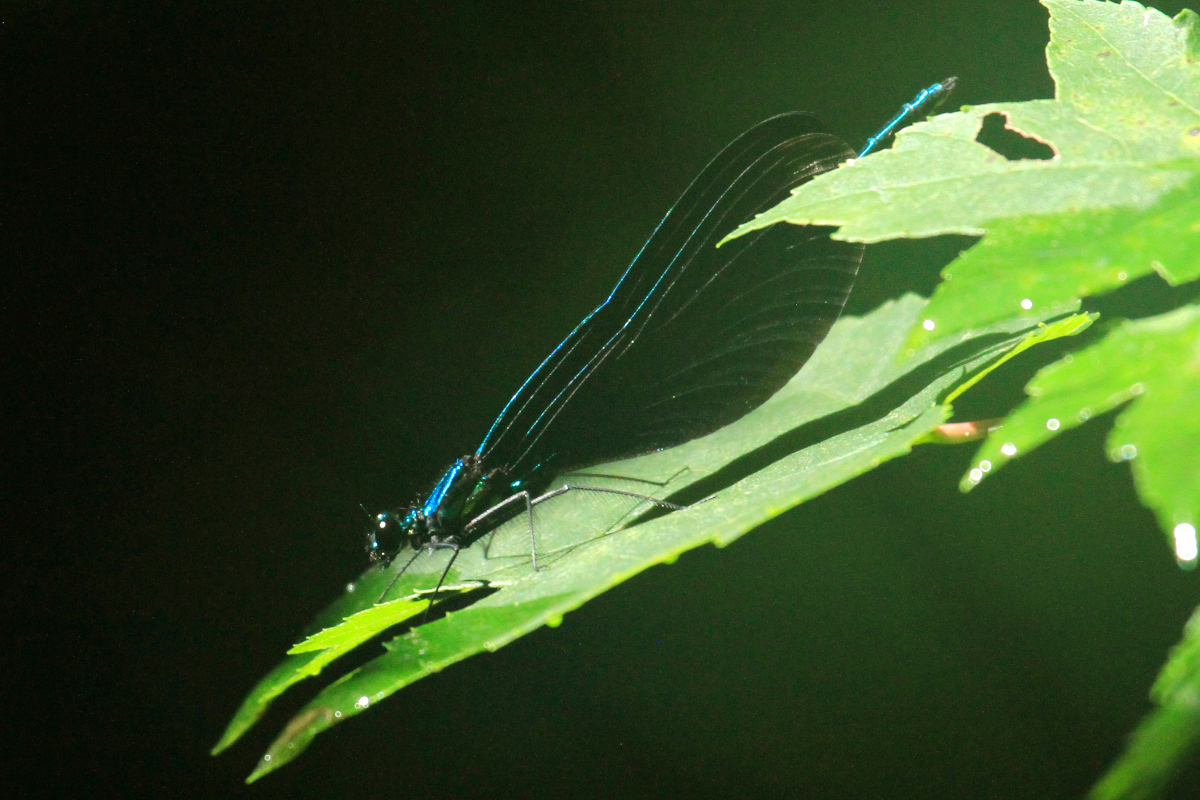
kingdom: Animalia
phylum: Arthropoda
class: Insecta
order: Odonata
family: Calopterygidae
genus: Calopteryx
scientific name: Calopteryx maculata
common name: Ebony jewelwing
